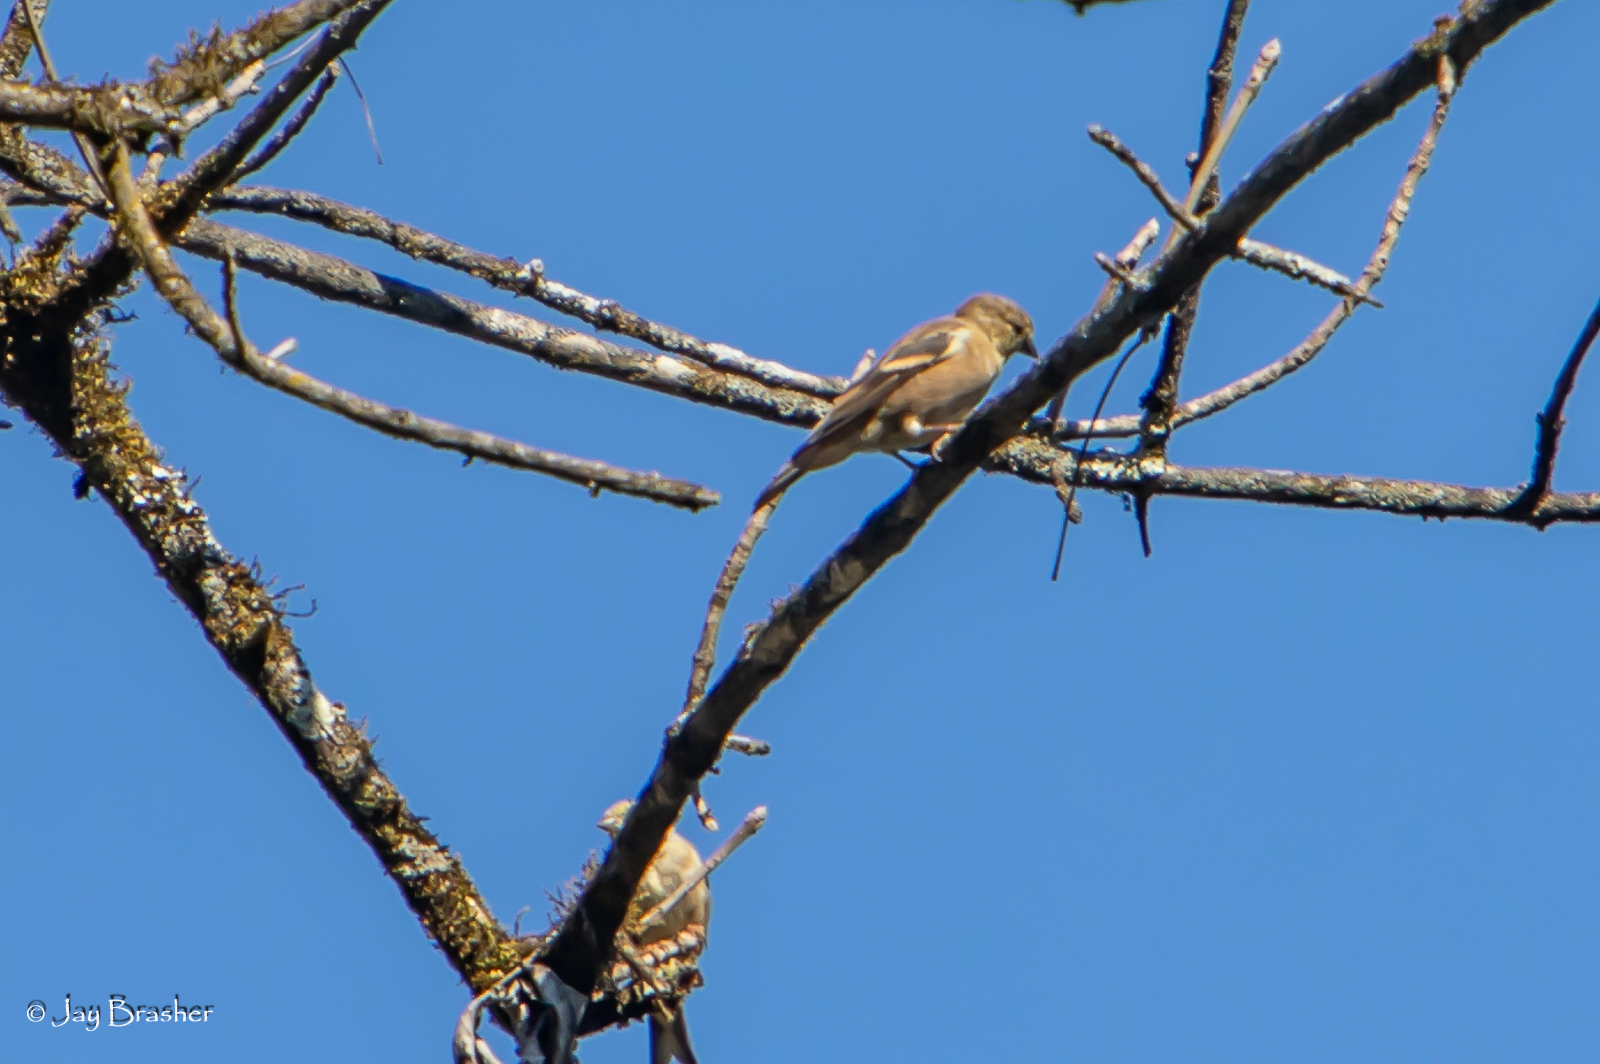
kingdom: Animalia
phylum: Chordata
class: Aves
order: Passeriformes
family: Fringillidae
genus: Spinus
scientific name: Spinus tristis
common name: American goldfinch
